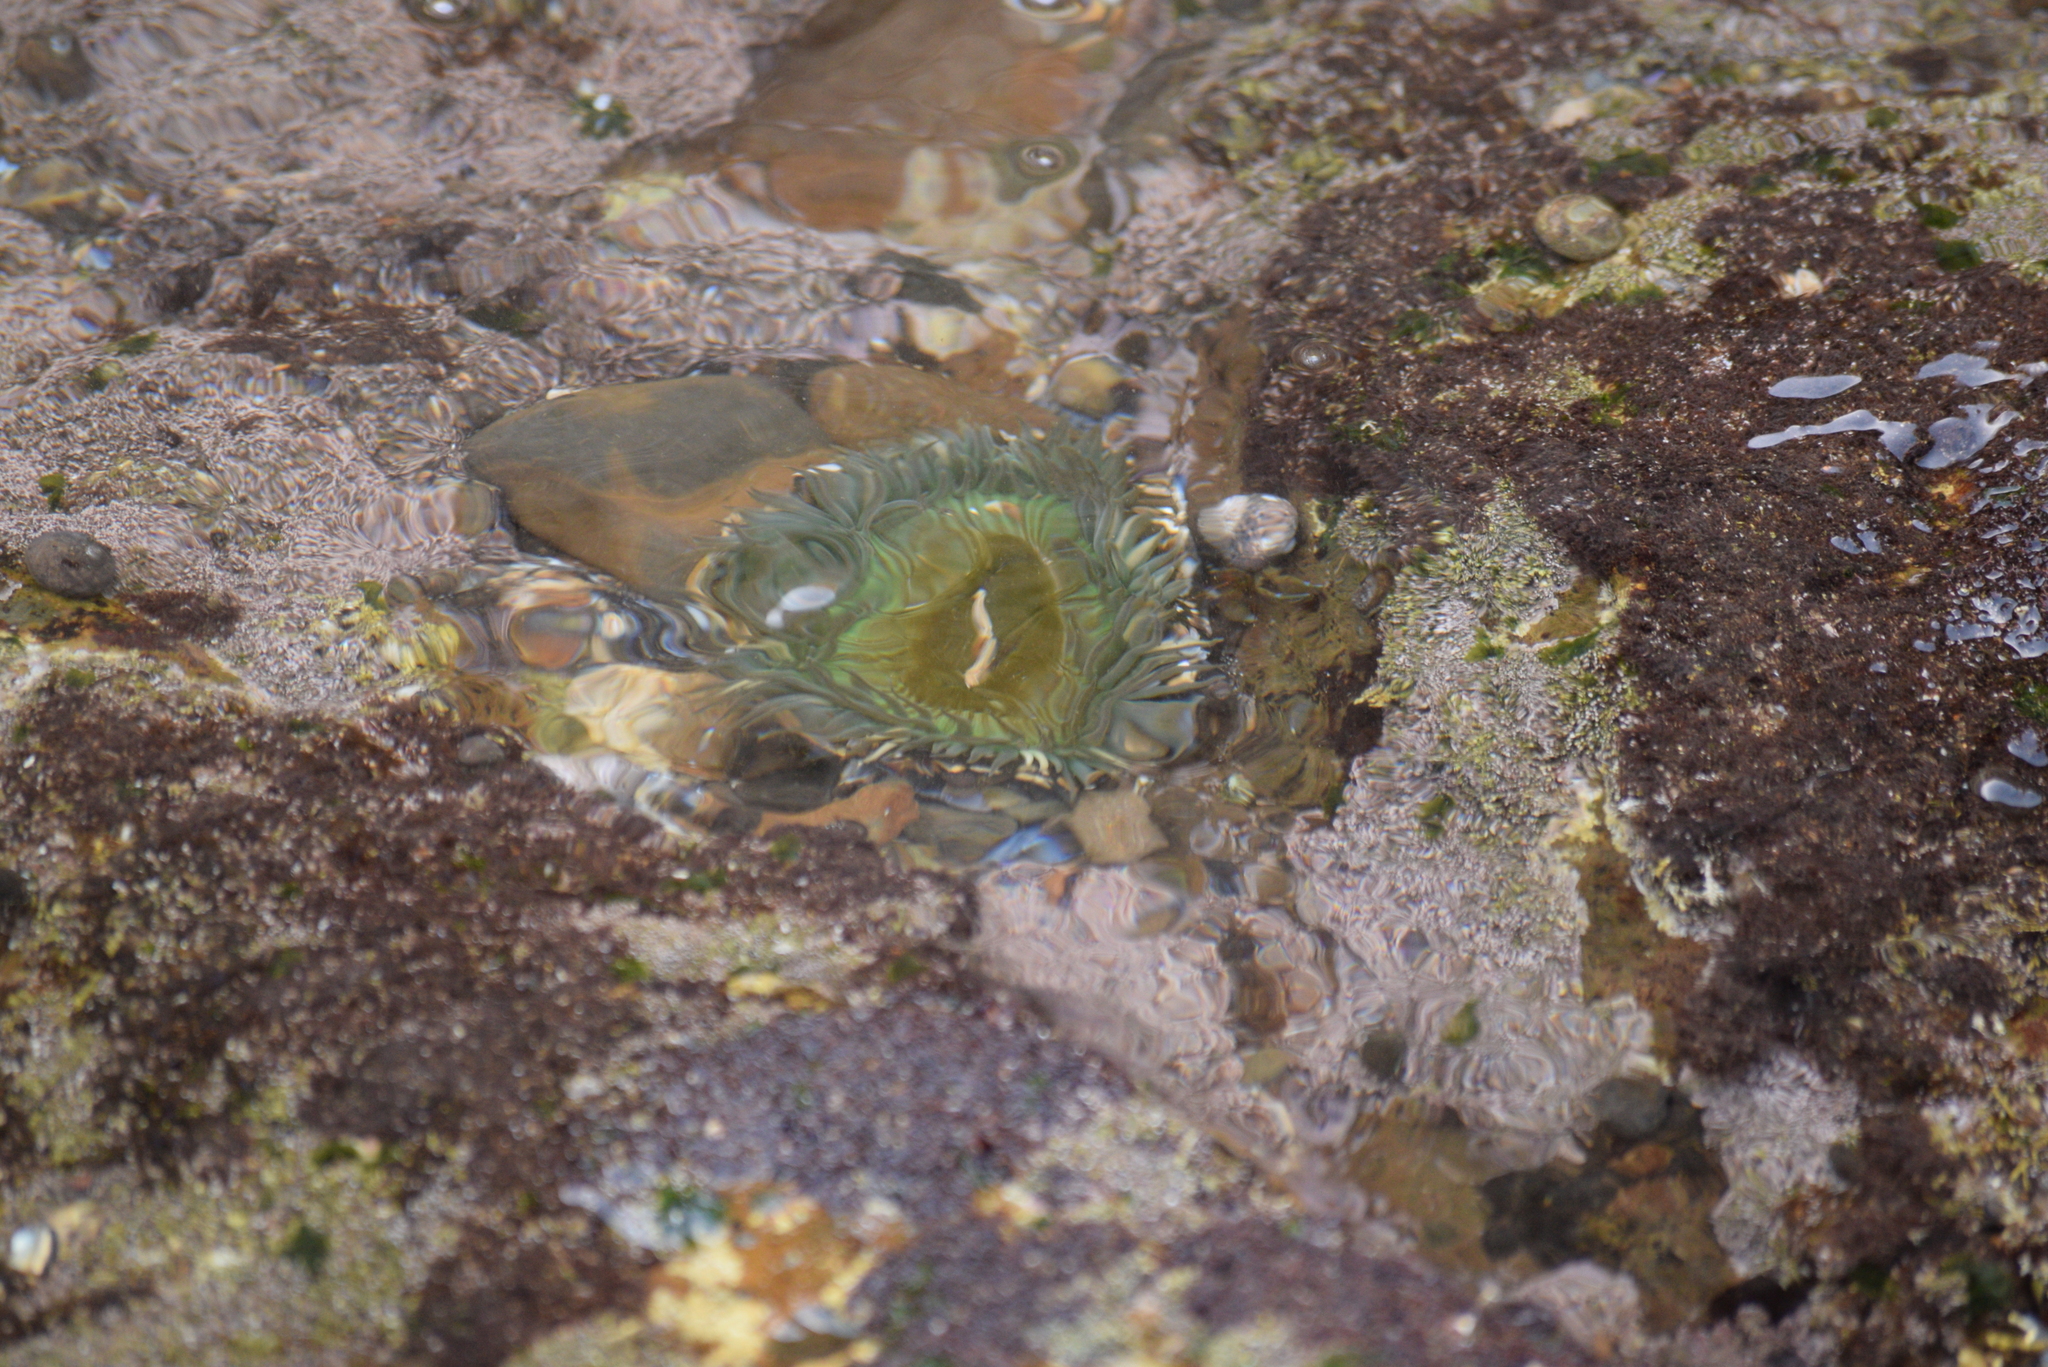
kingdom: Animalia
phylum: Cnidaria
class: Anthozoa
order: Actiniaria
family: Actiniidae
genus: Anthopleura
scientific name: Anthopleura sola
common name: Sun anemone
